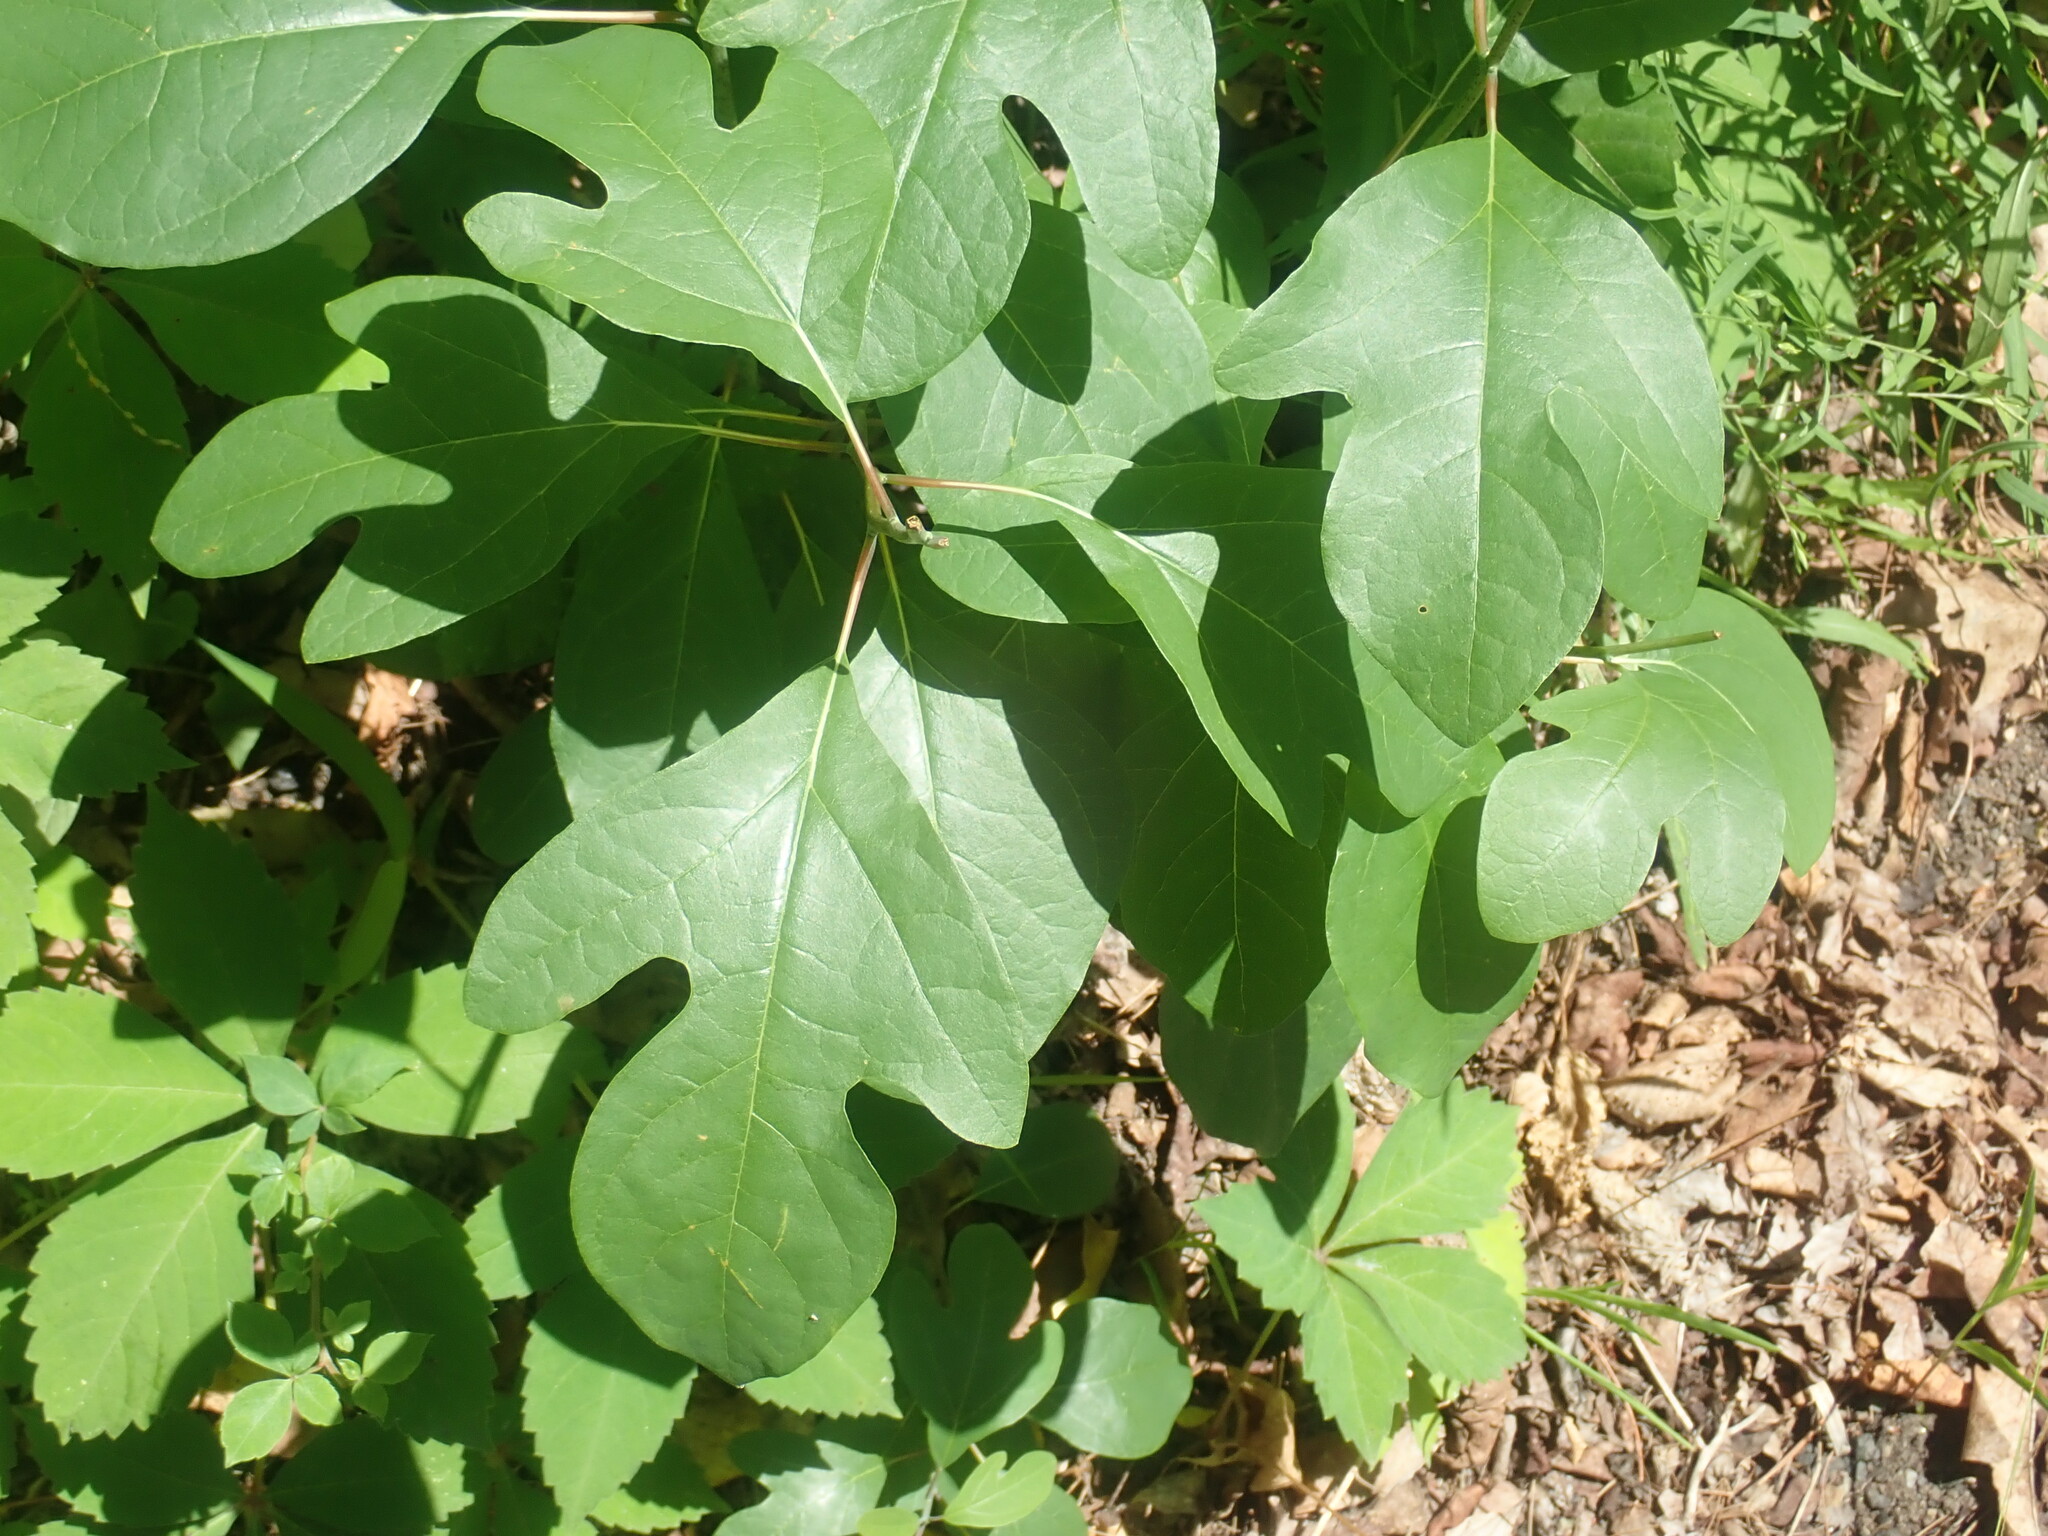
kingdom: Plantae
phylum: Tracheophyta
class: Magnoliopsida
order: Laurales
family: Lauraceae
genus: Sassafras
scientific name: Sassafras albidum
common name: Sassafras
